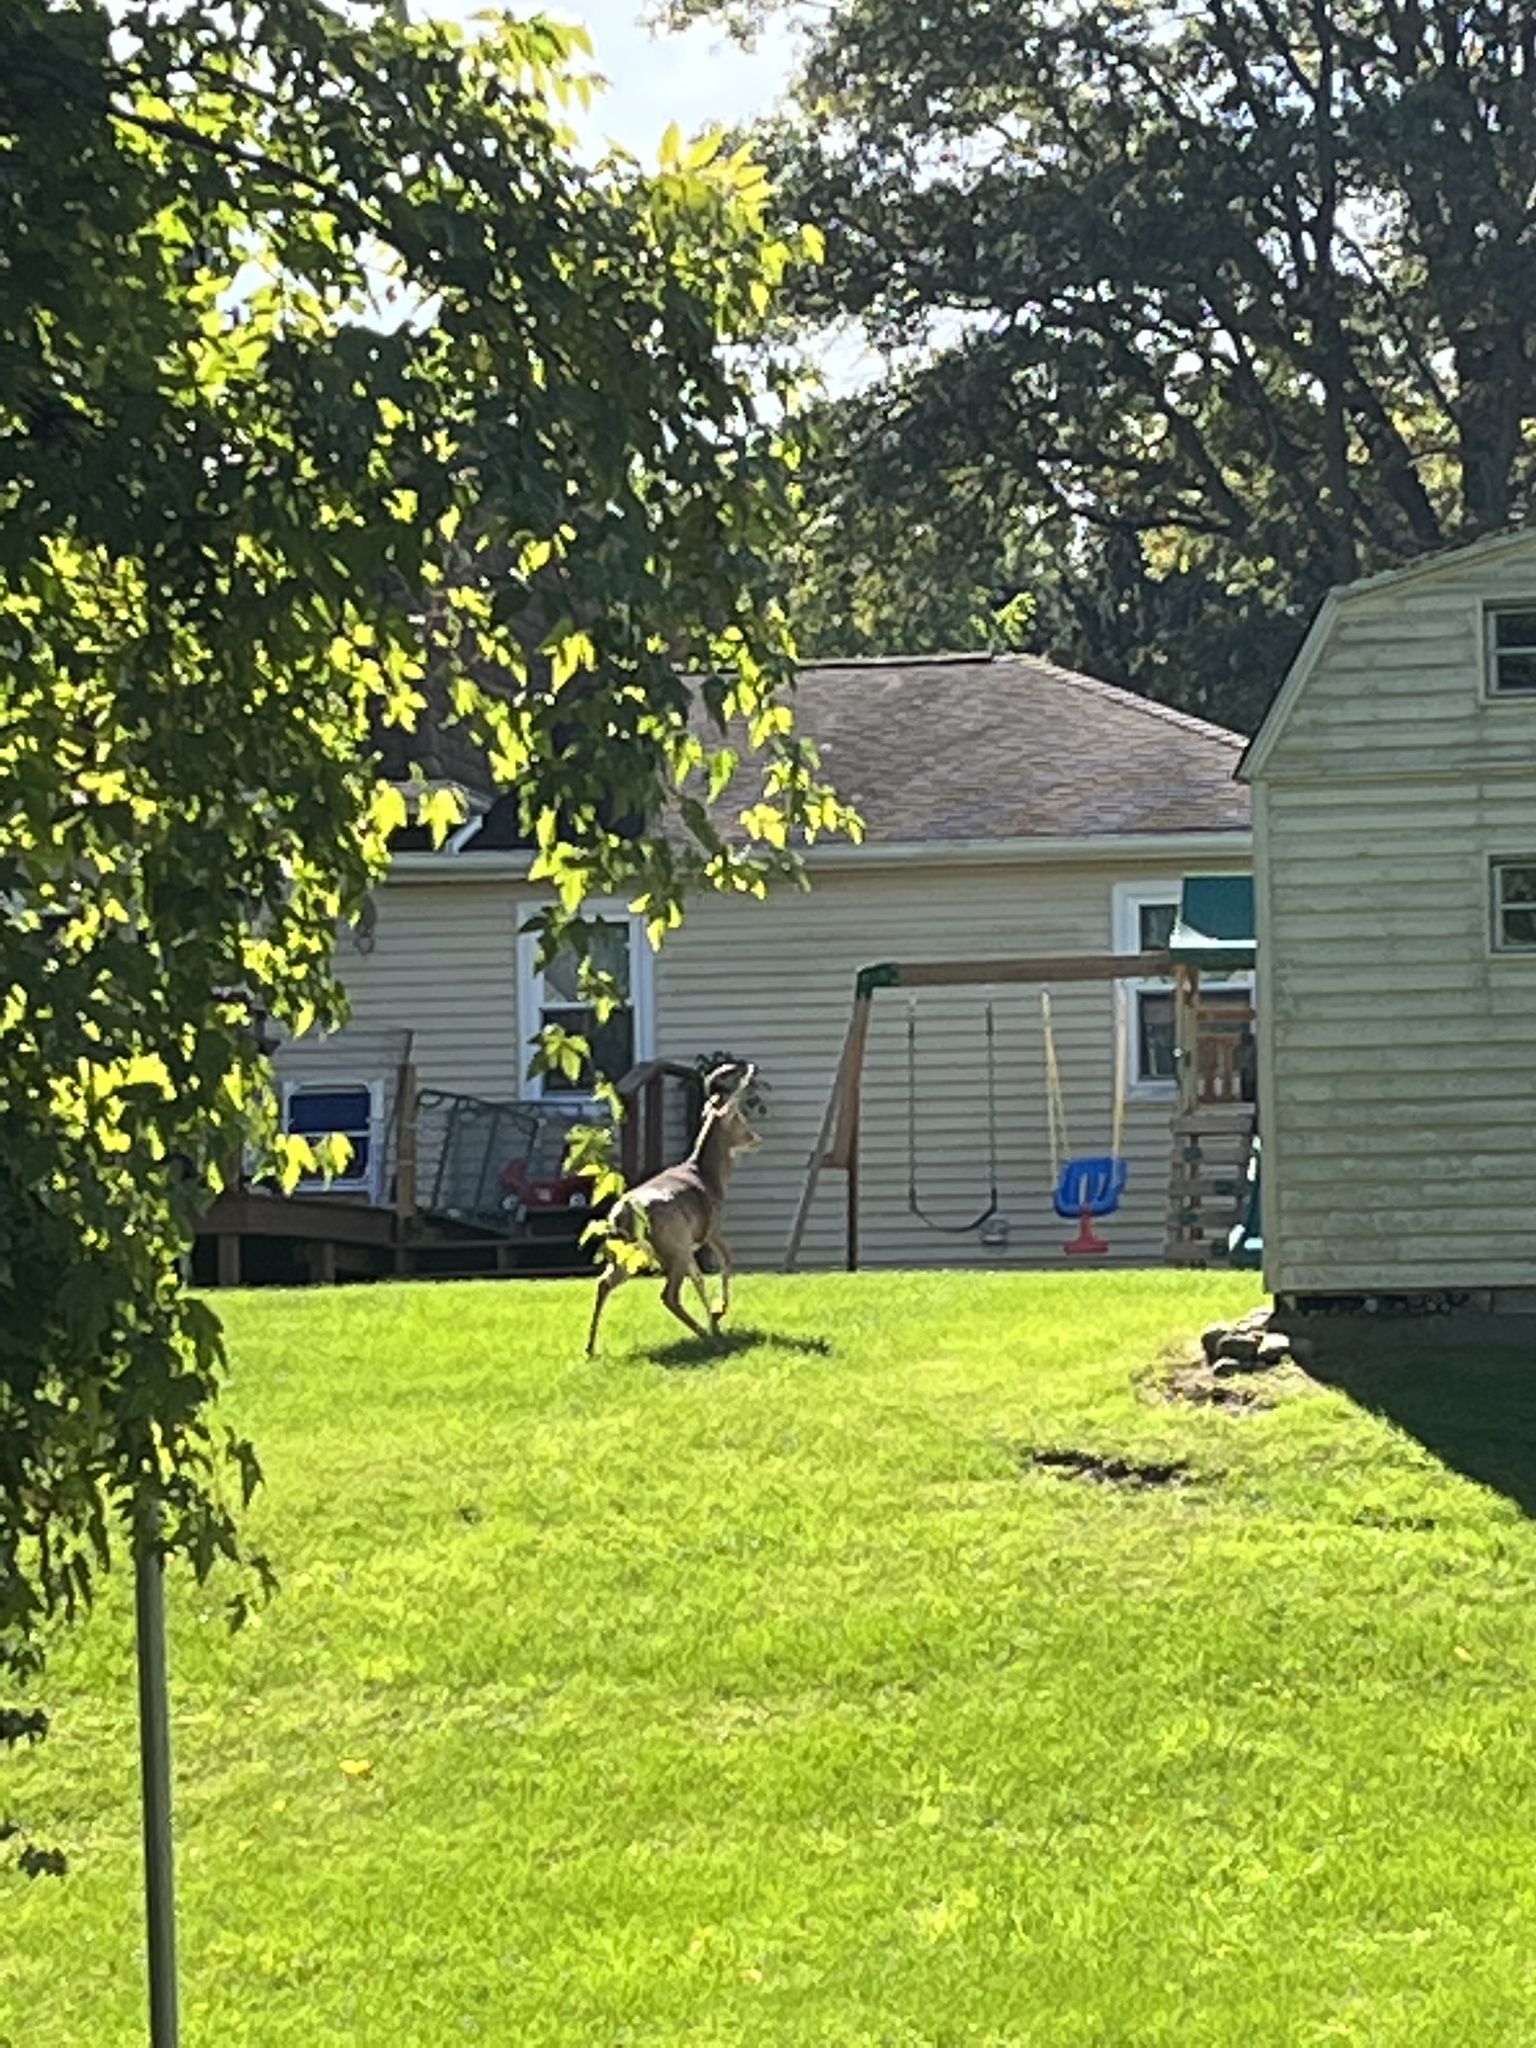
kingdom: Animalia
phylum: Chordata
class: Mammalia
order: Artiodactyla
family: Cervidae
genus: Odocoileus
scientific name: Odocoileus virginianus
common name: White-tailed deer
